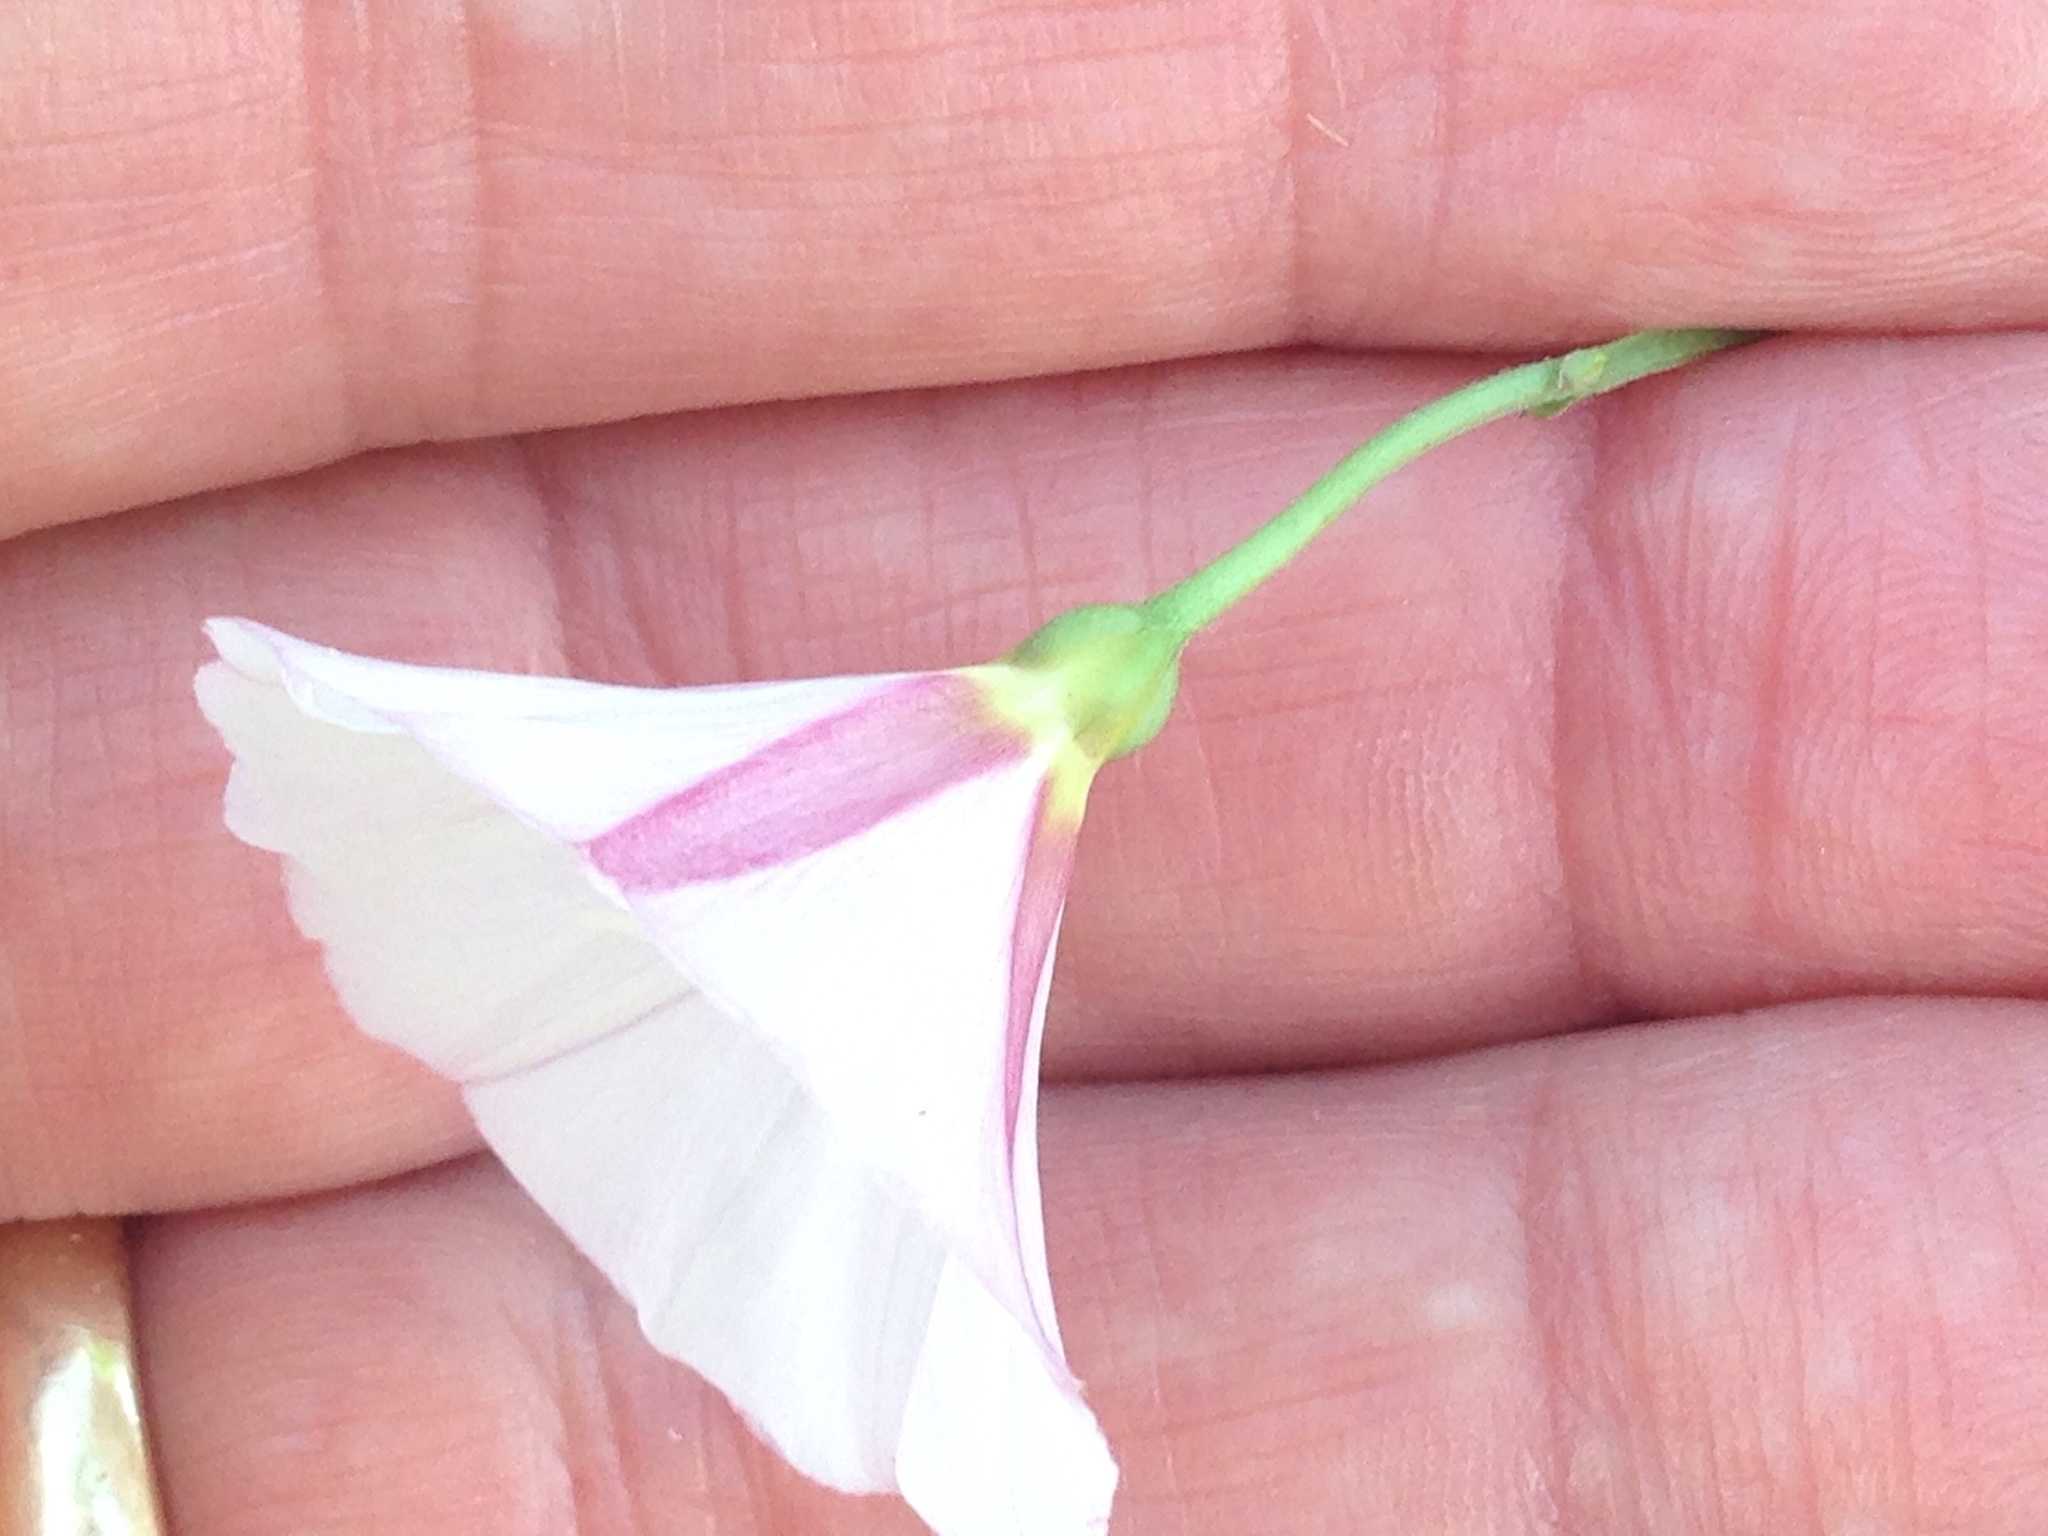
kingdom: Plantae
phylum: Tracheophyta
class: Magnoliopsida
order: Solanales
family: Convolvulaceae
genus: Convolvulus
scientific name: Convolvulus arvensis
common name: Field bindweed
